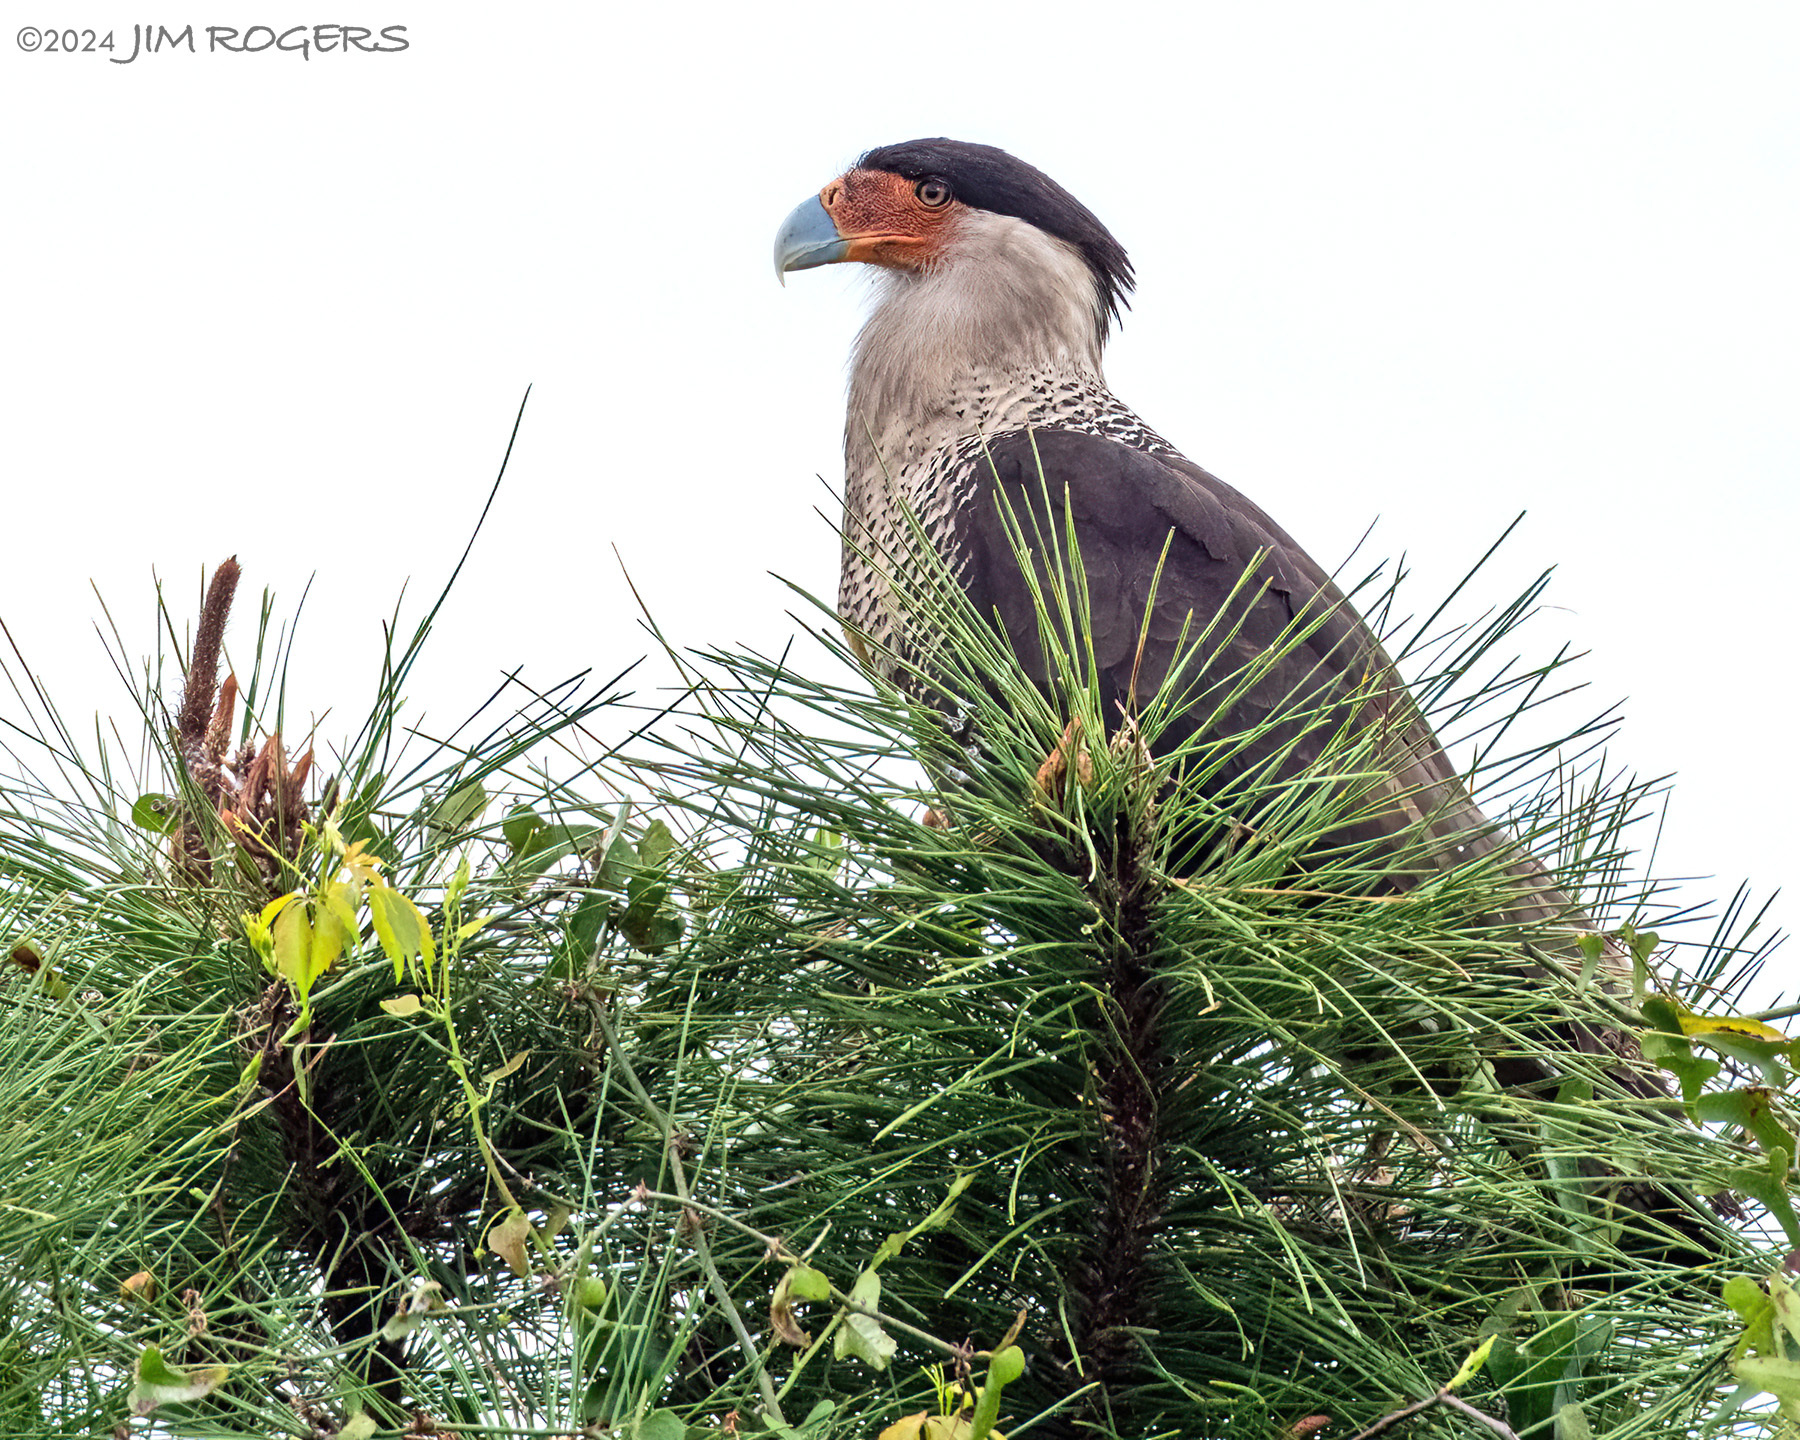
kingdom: Animalia
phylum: Chordata
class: Aves
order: Falconiformes
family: Falconidae
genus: Caracara
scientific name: Caracara plancus
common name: Southern caracara
